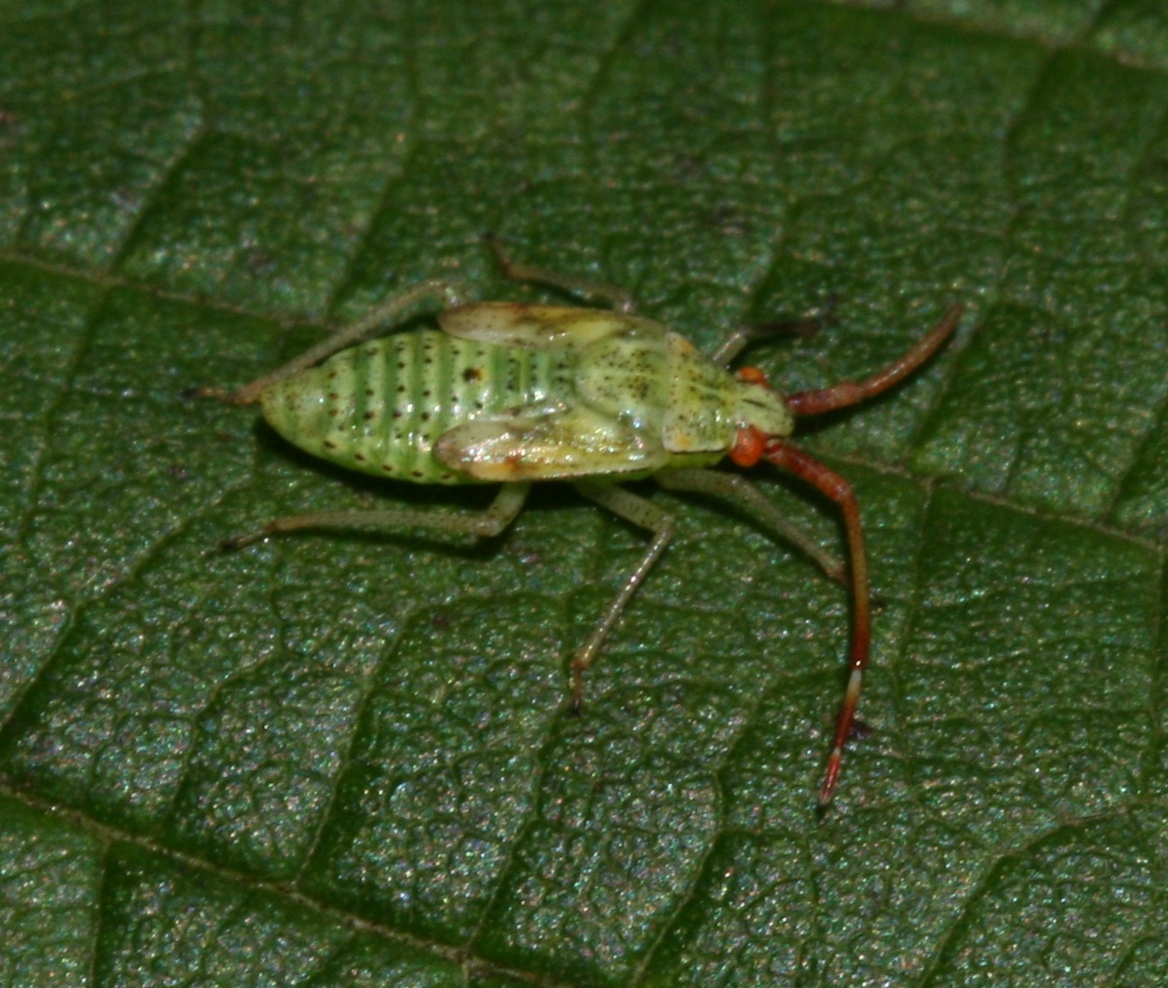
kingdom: Animalia
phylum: Arthropoda
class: Insecta
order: Hemiptera
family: Miridae
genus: Pantilius
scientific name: Pantilius tunicatus
